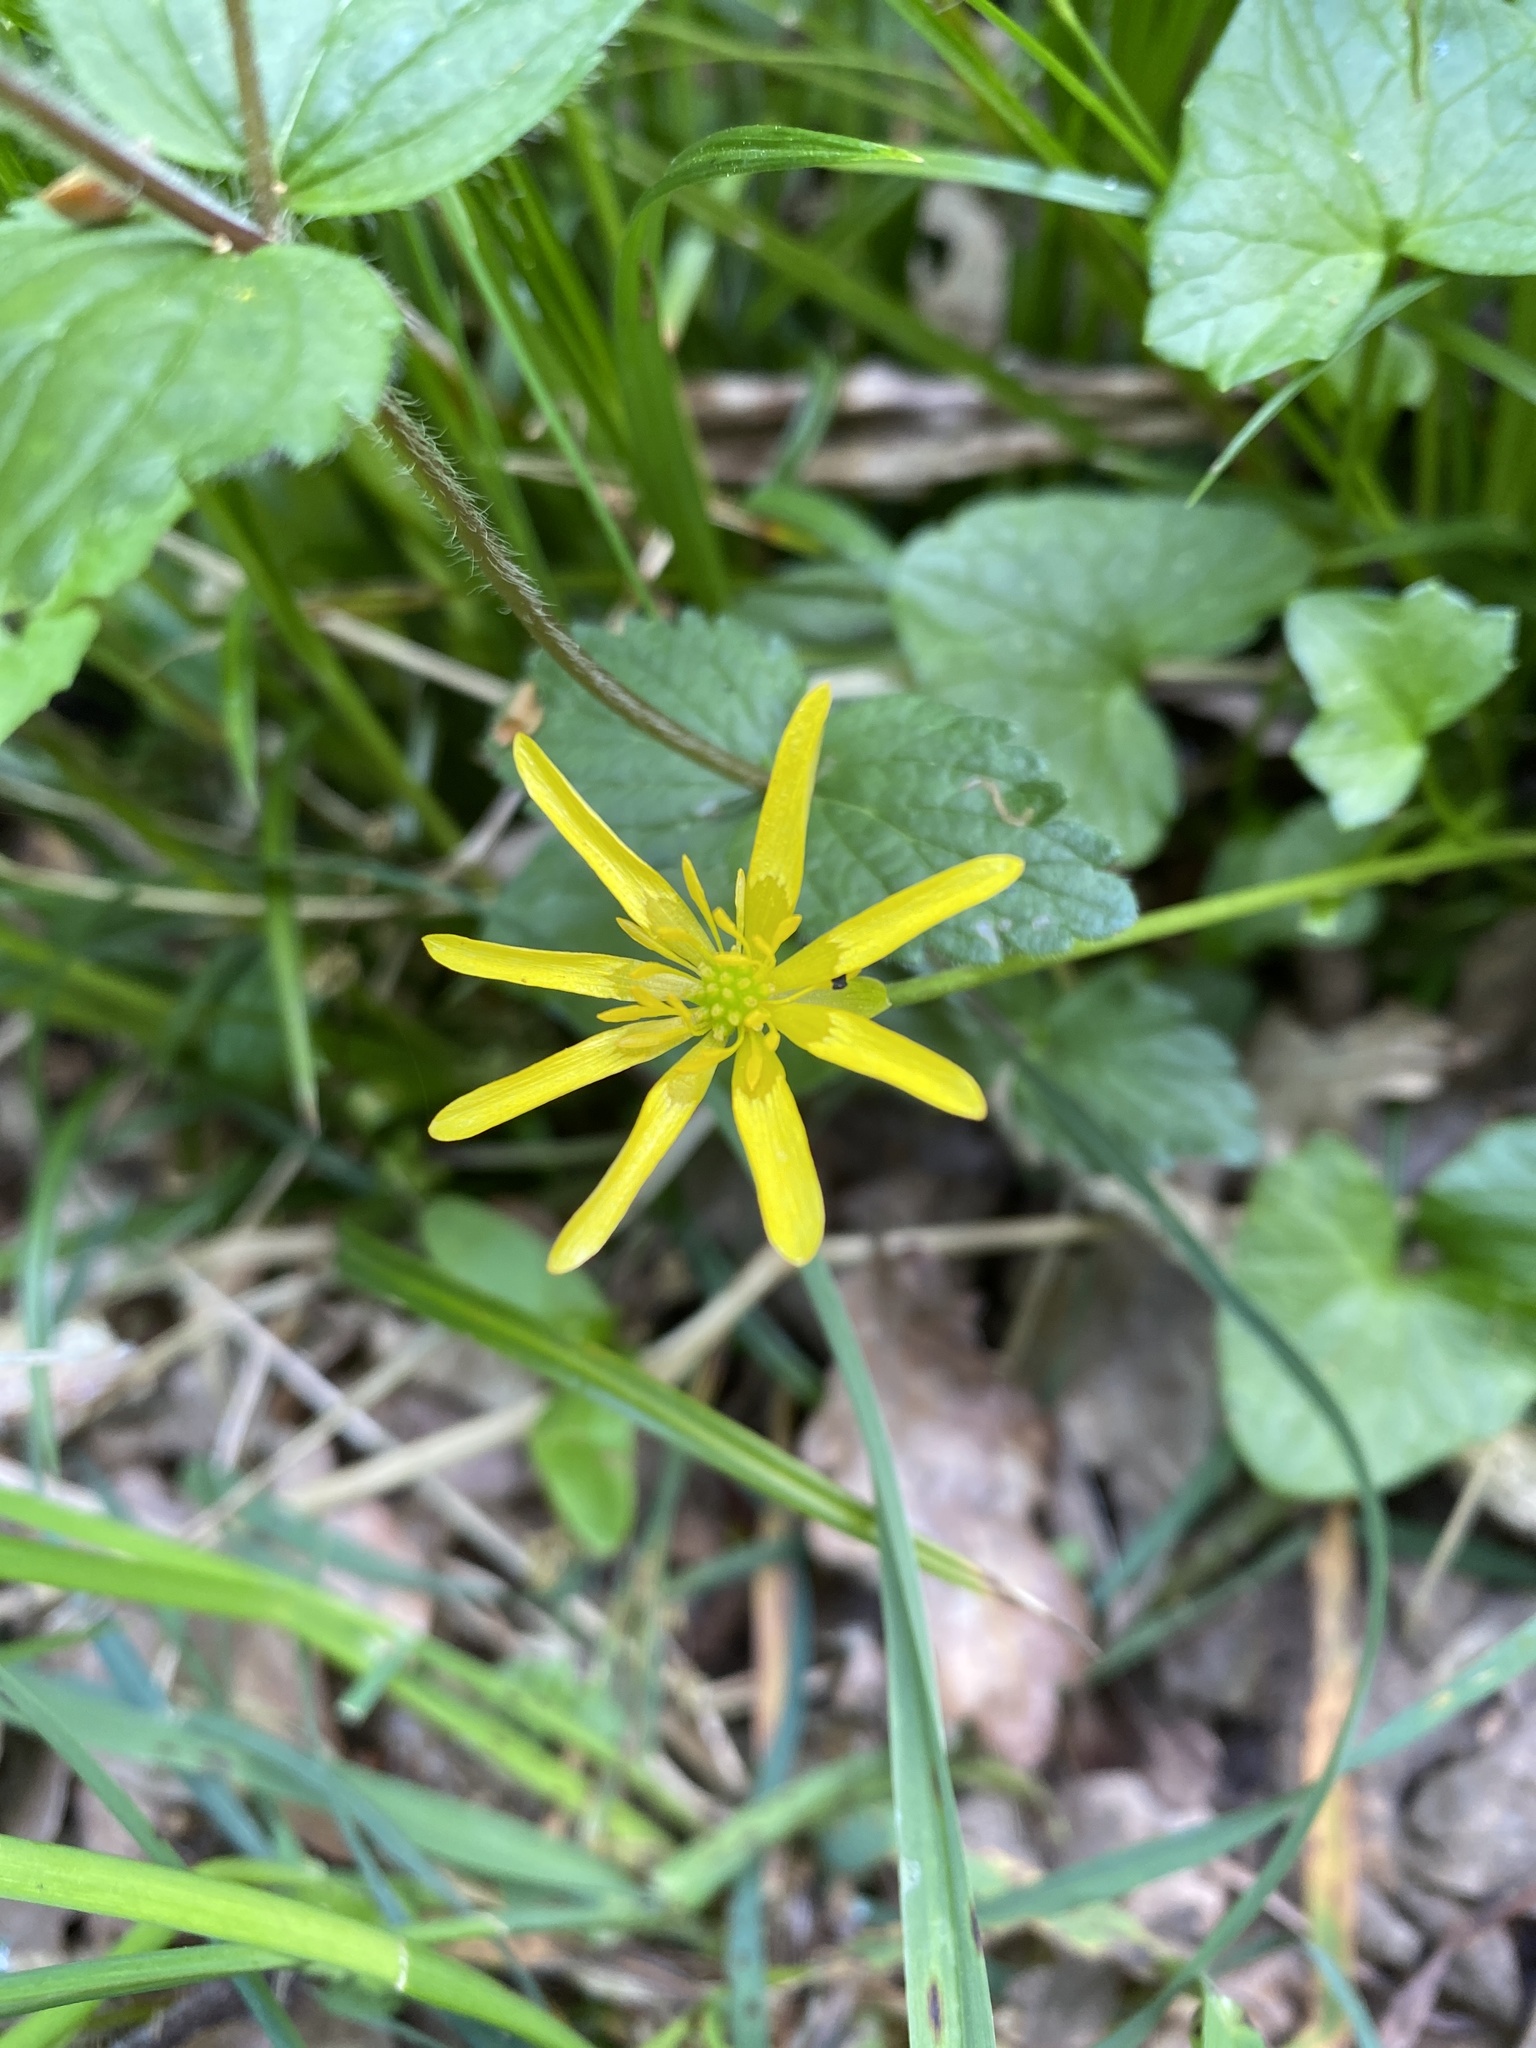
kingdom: Plantae
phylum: Tracheophyta
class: Magnoliopsida
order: Ranunculales
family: Ranunculaceae
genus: Ficaria
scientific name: Ficaria verna
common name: Lesser celandine
